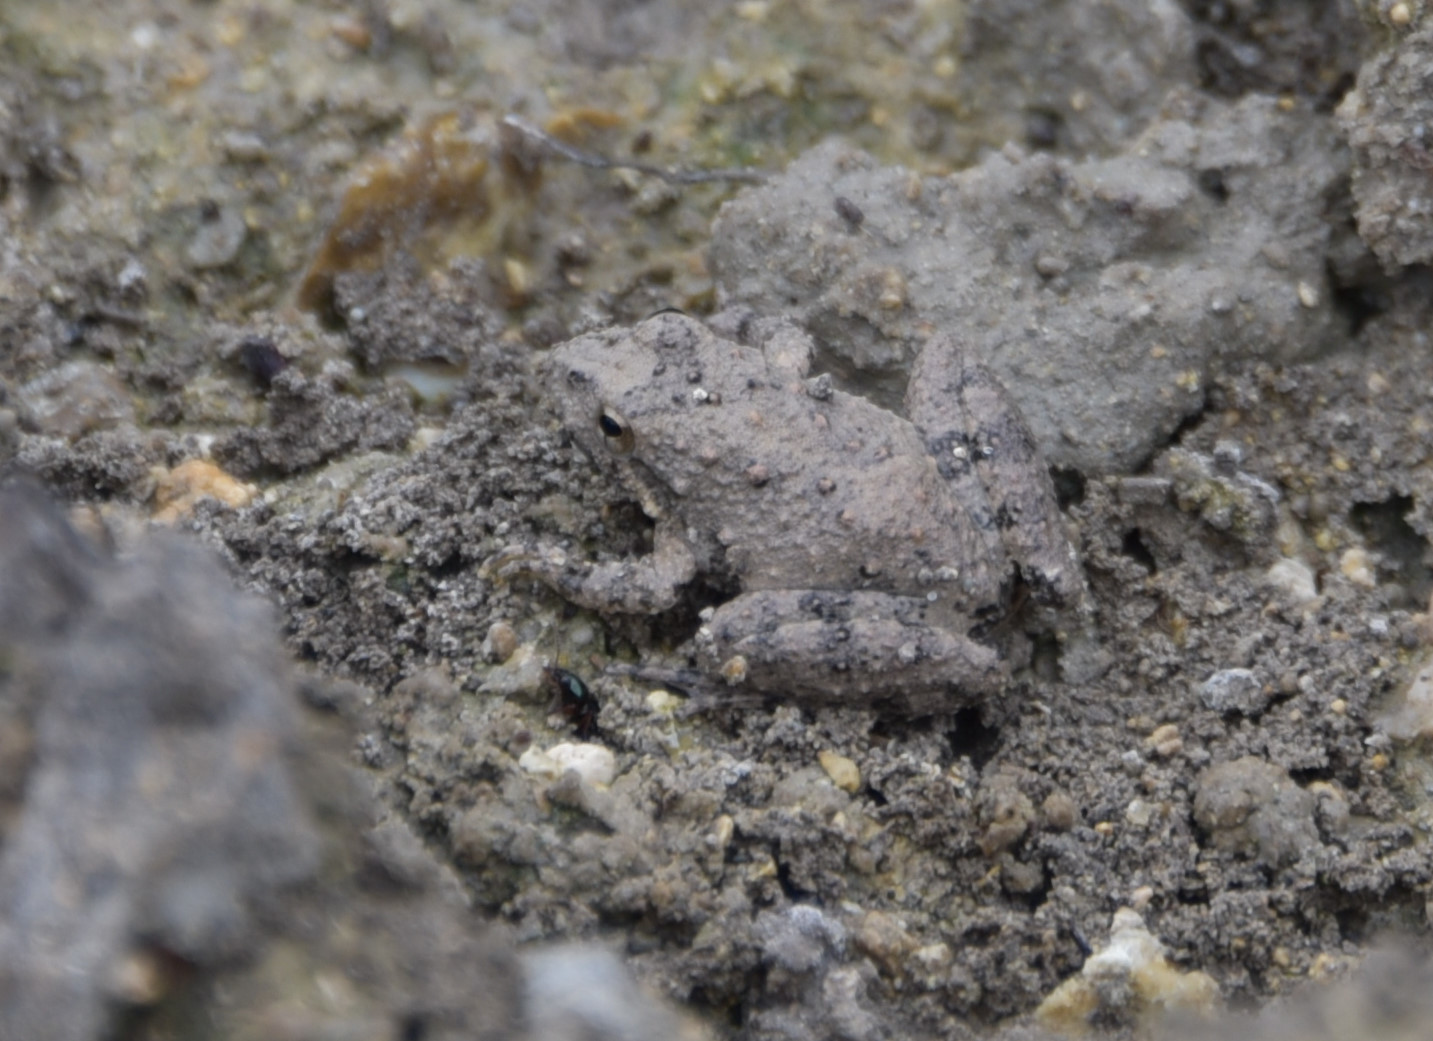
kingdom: Animalia
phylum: Chordata
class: Amphibia
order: Anura
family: Hylidae
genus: Acris
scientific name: Acris blanchardi
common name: Blanchard's cricket frog
